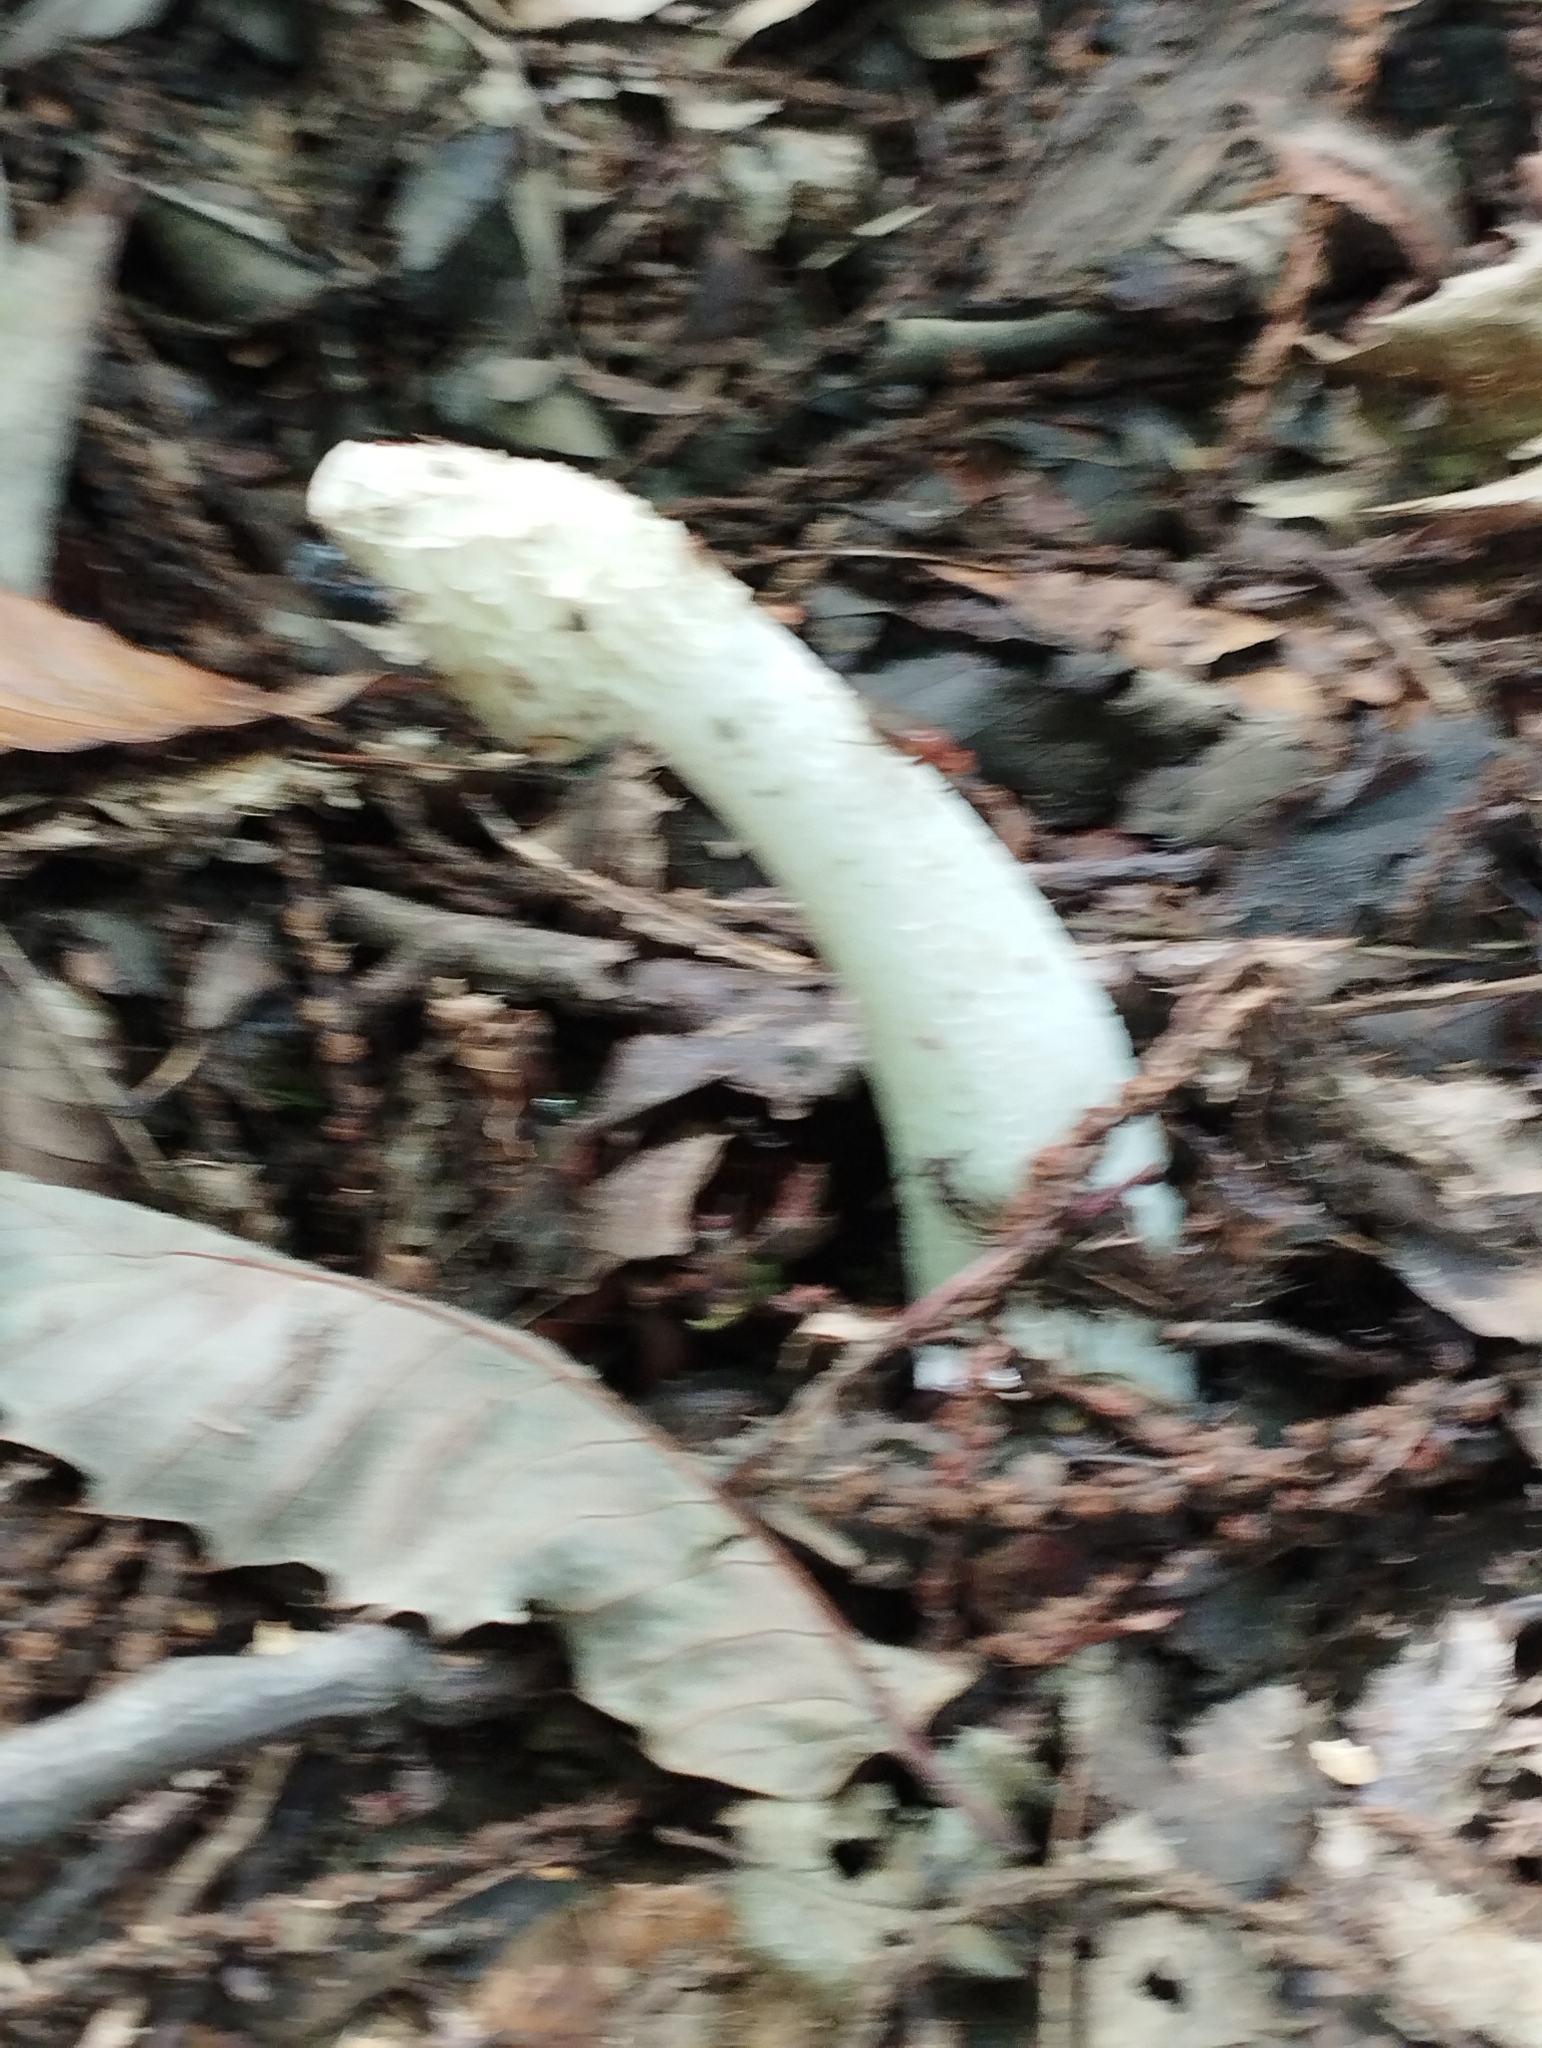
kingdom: Fungi
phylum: Basidiomycota
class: Agaricomycetes
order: Phallales
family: Phallaceae
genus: Phallus
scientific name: Phallus impudicus
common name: Common stinkhorn
